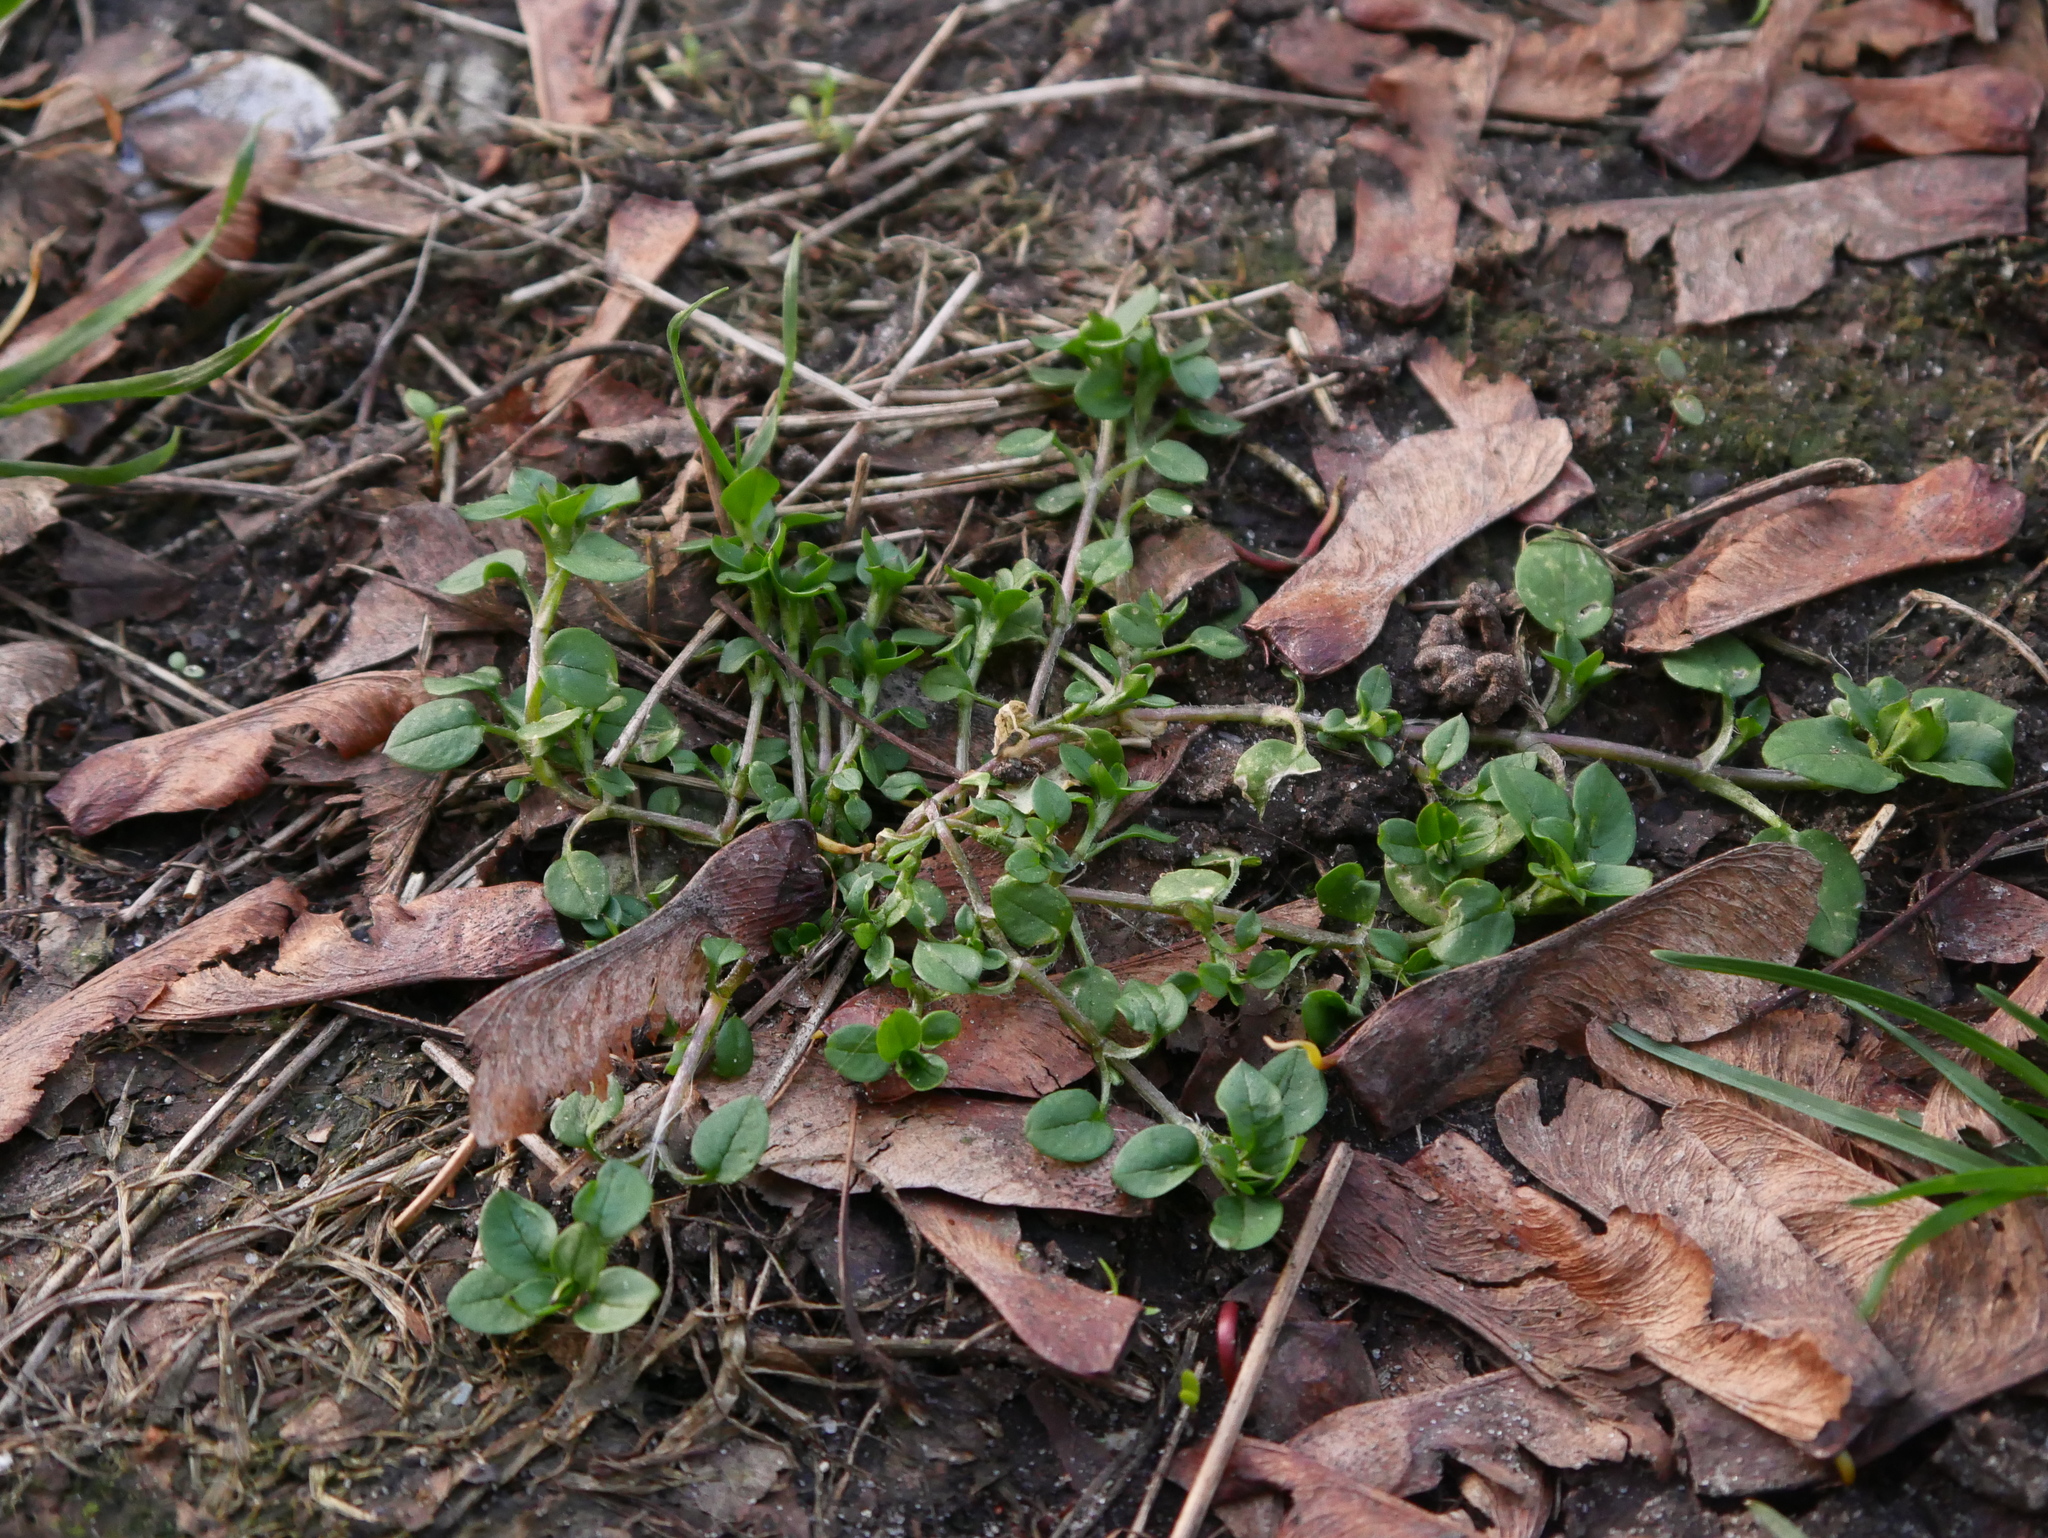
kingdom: Plantae
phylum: Tracheophyta
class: Magnoliopsida
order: Caryophyllales
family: Caryophyllaceae
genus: Stellaria
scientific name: Stellaria media
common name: Common chickweed
